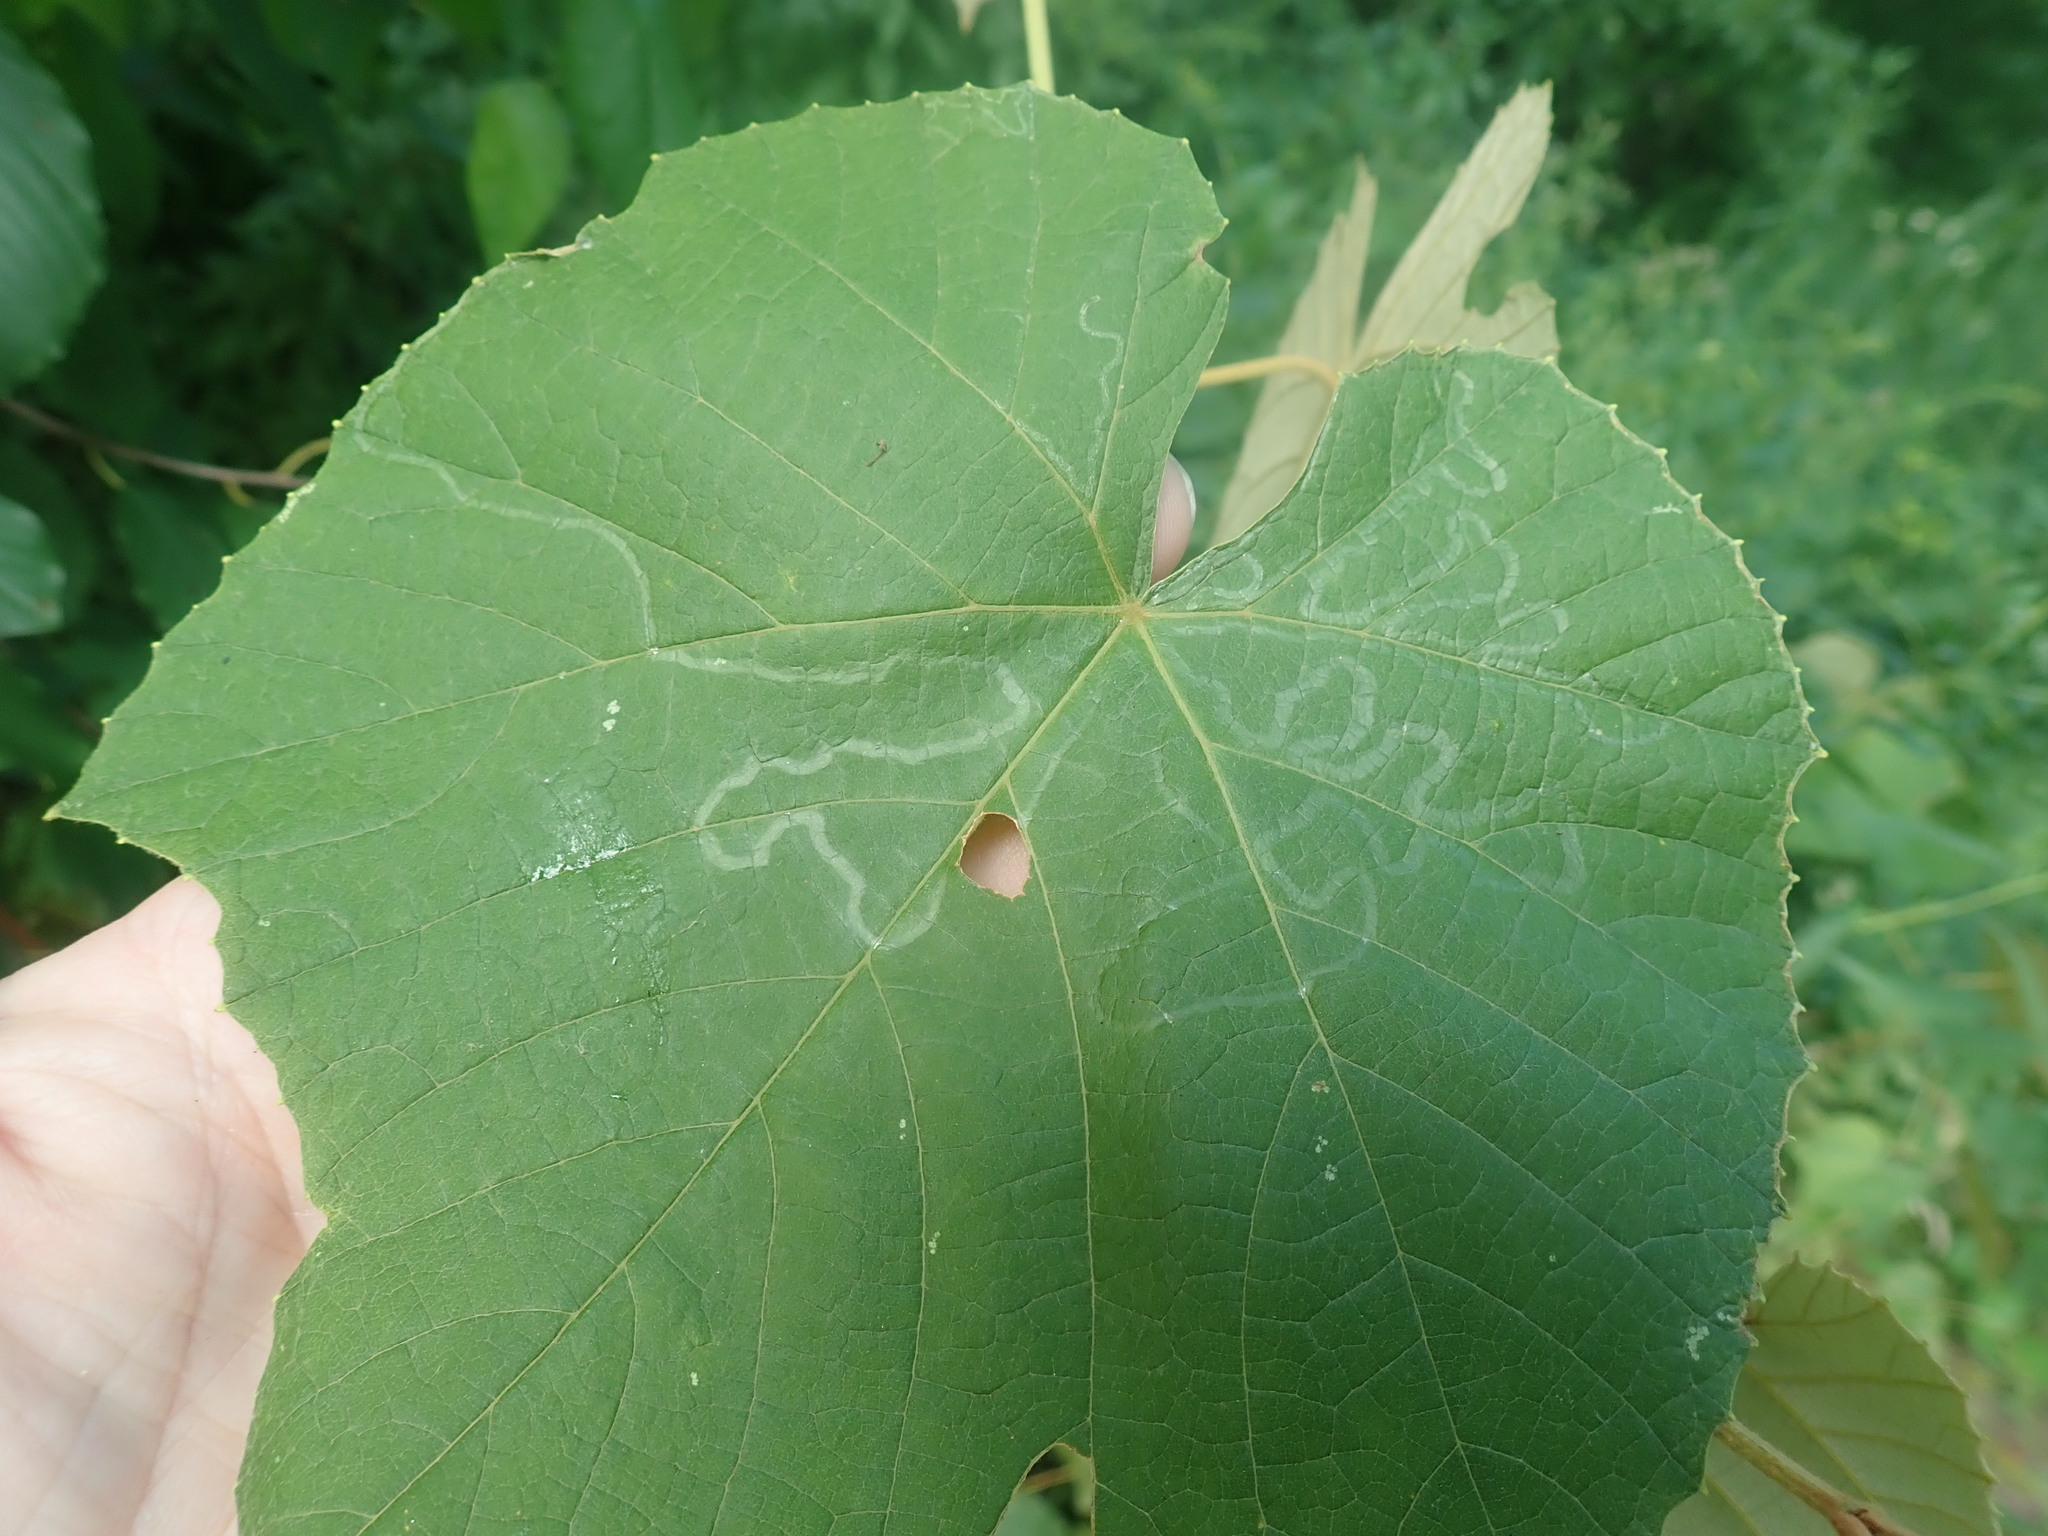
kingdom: Animalia
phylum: Arthropoda
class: Insecta
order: Lepidoptera
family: Gracillariidae
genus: Phyllocnistis
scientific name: Phyllocnistis vitegenella
